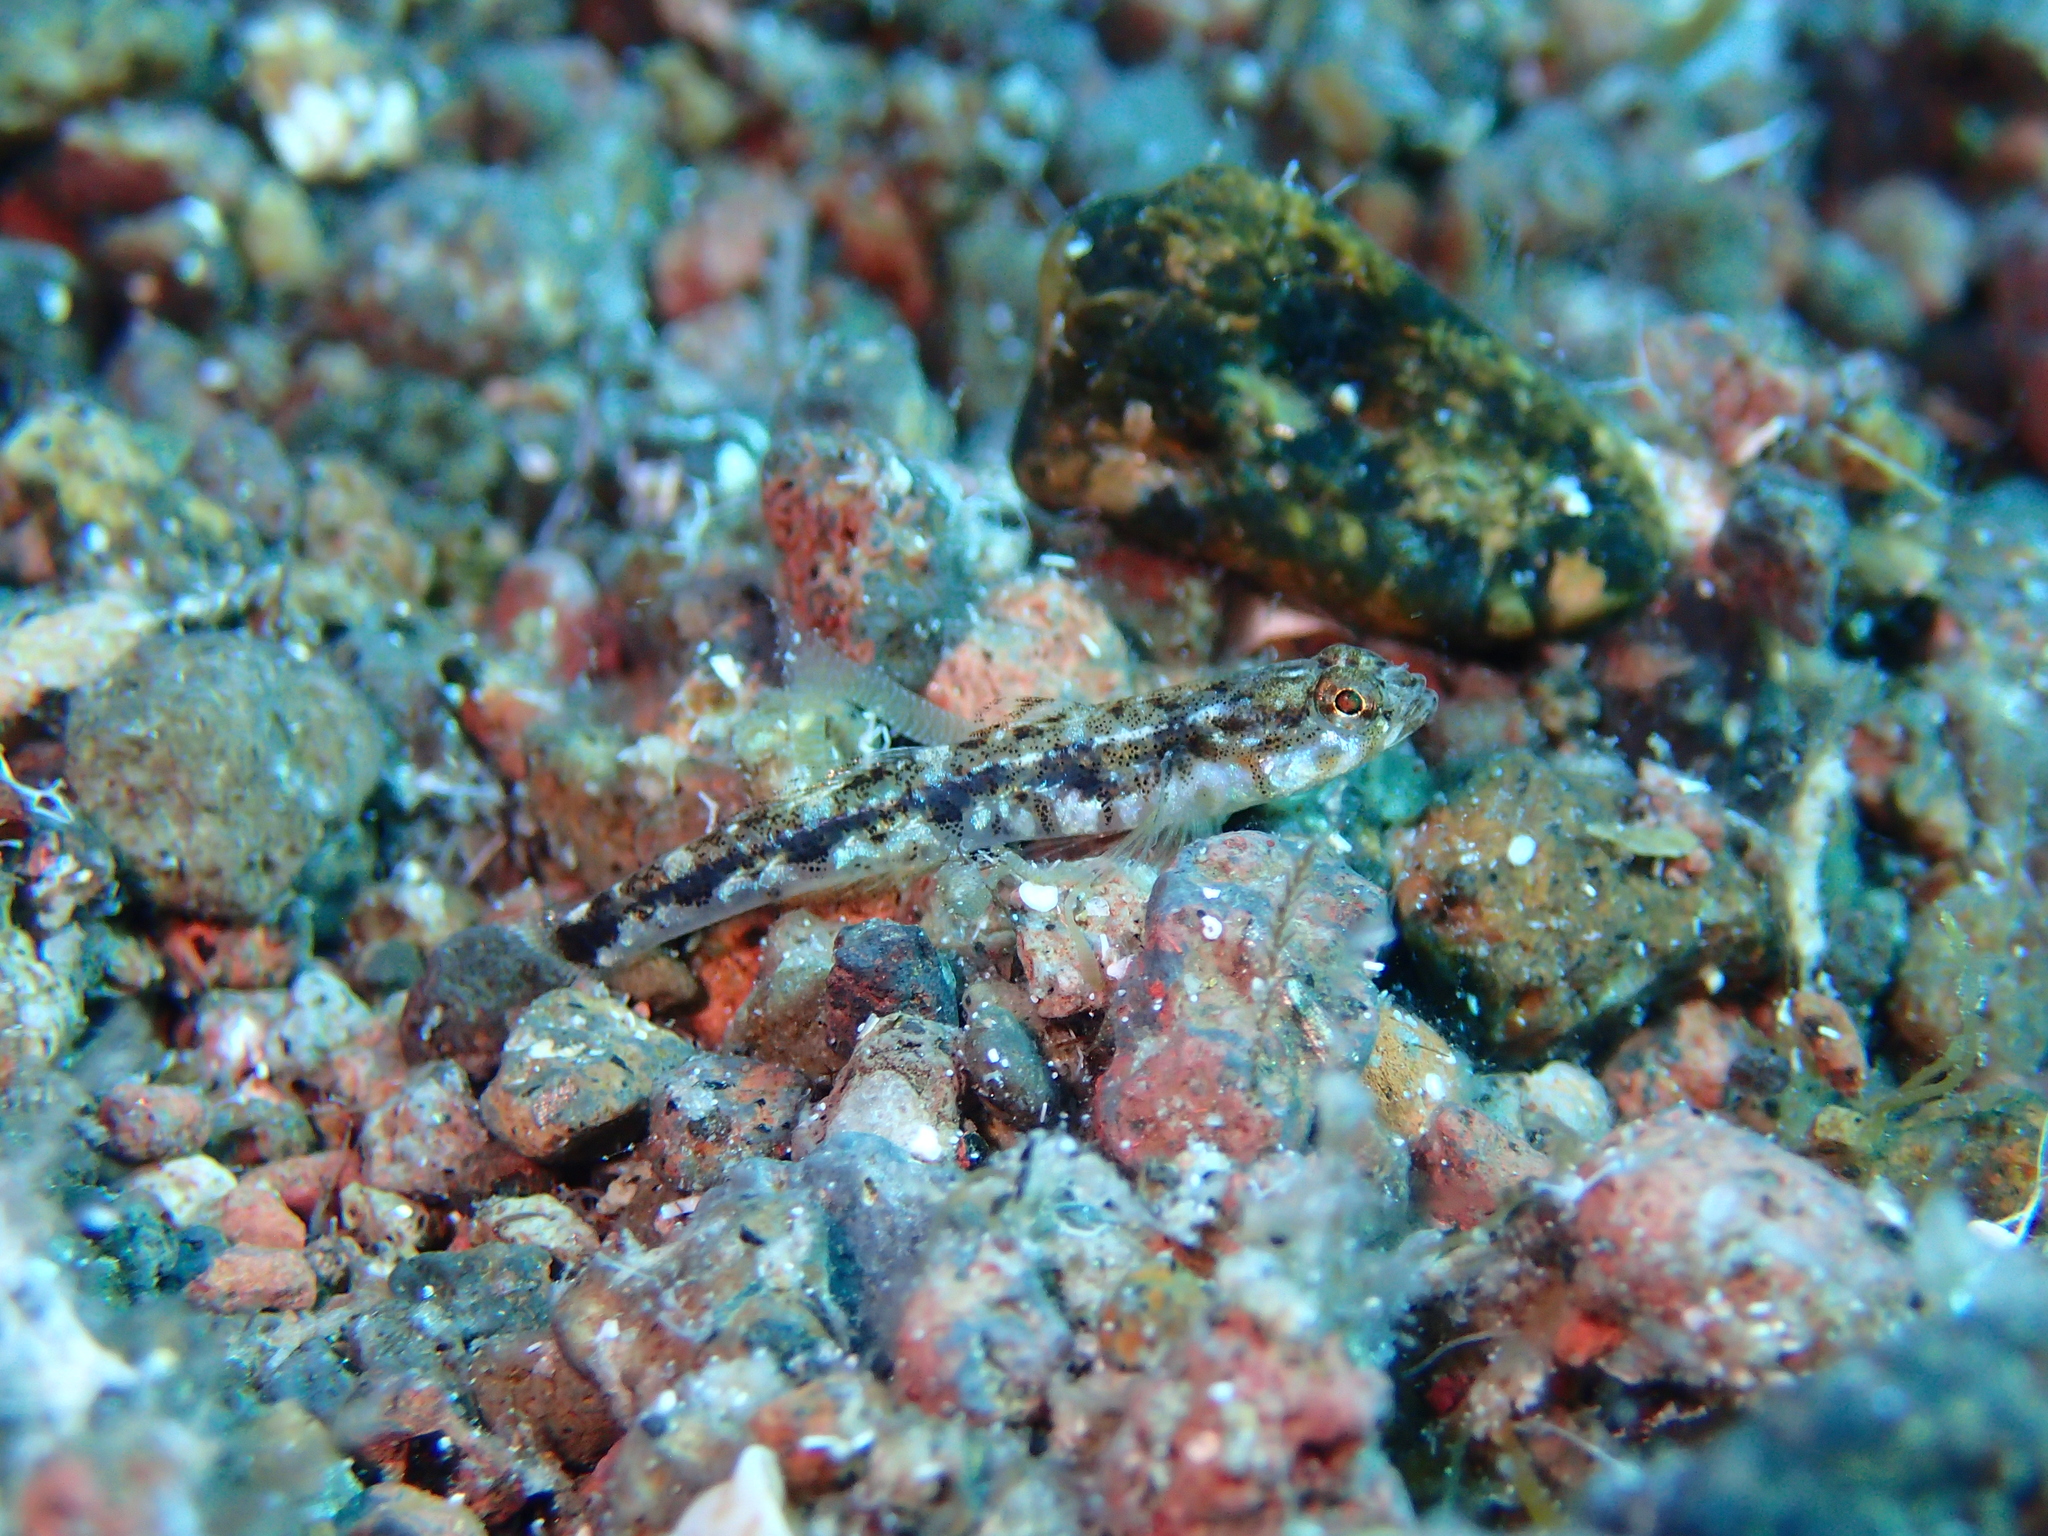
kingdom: Animalia
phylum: Chordata
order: Perciformes
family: Gobiidae
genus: Pomatoschistus
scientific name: Pomatoschistus bathi
